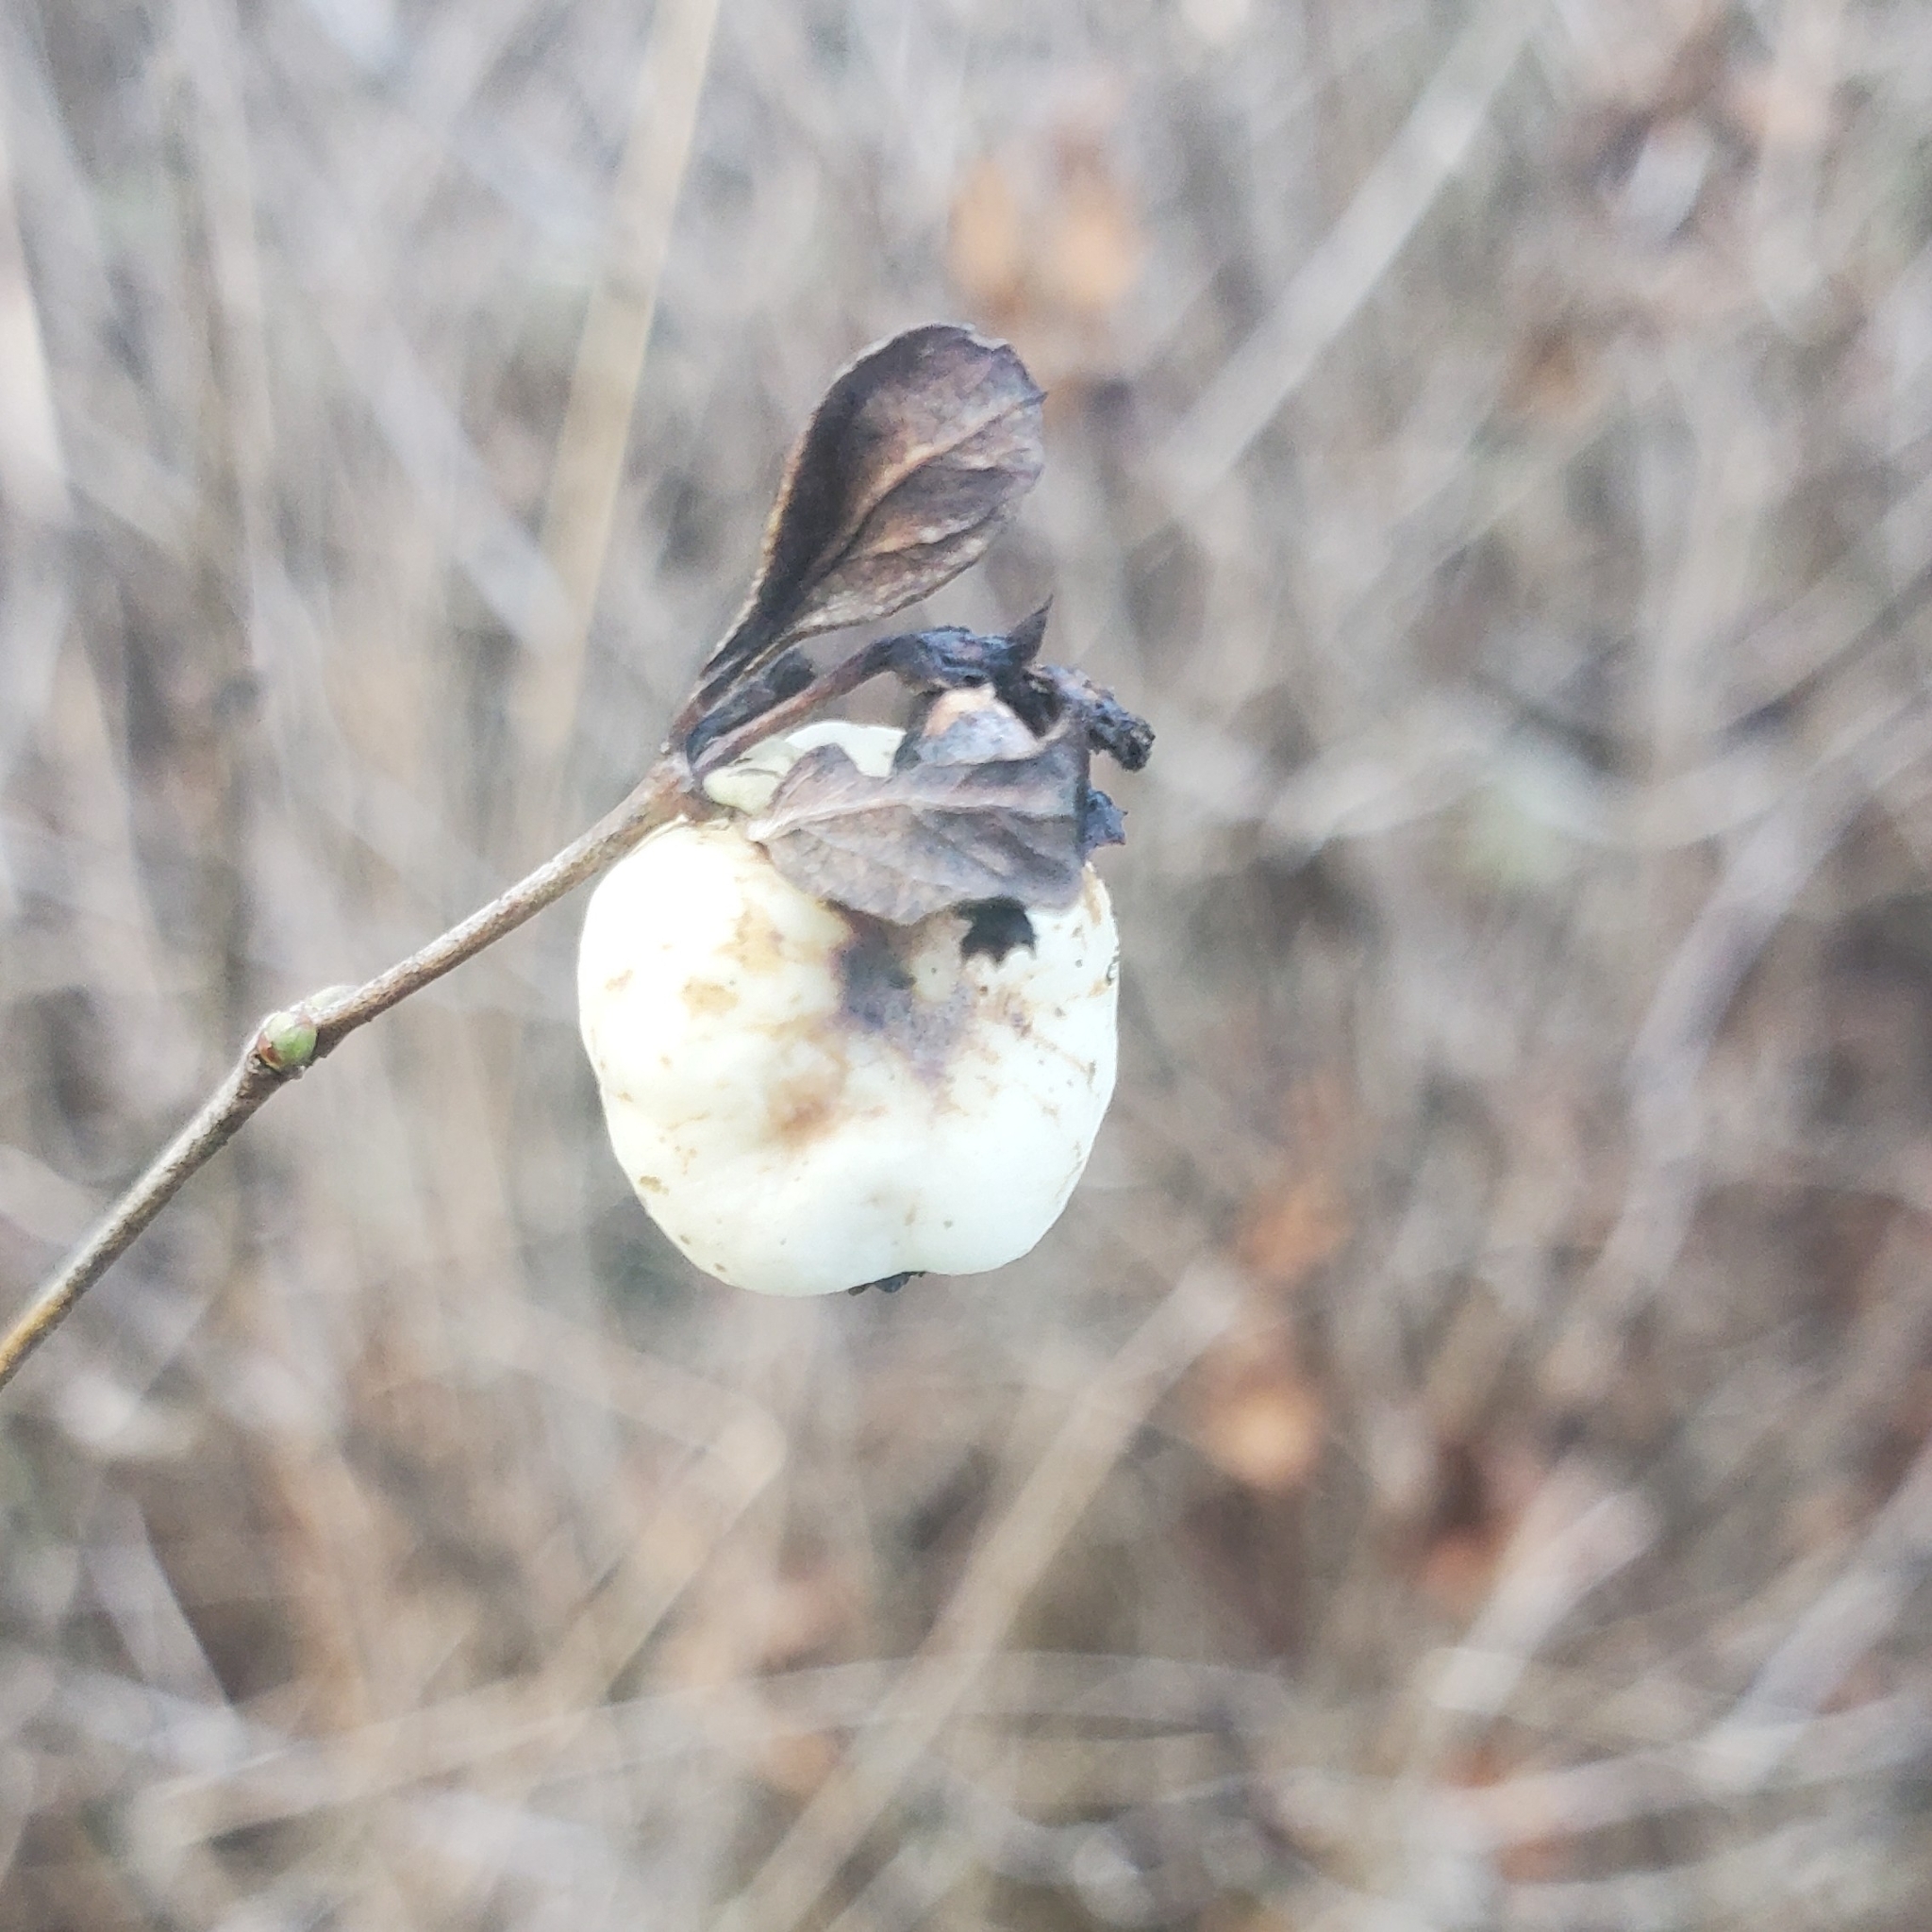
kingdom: Plantae
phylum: Tracheophyta
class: Magnoliopsida
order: Dipsacales
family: Caprifoliaceae
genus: Symphoricarpos
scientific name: Symphoricarpos albus
